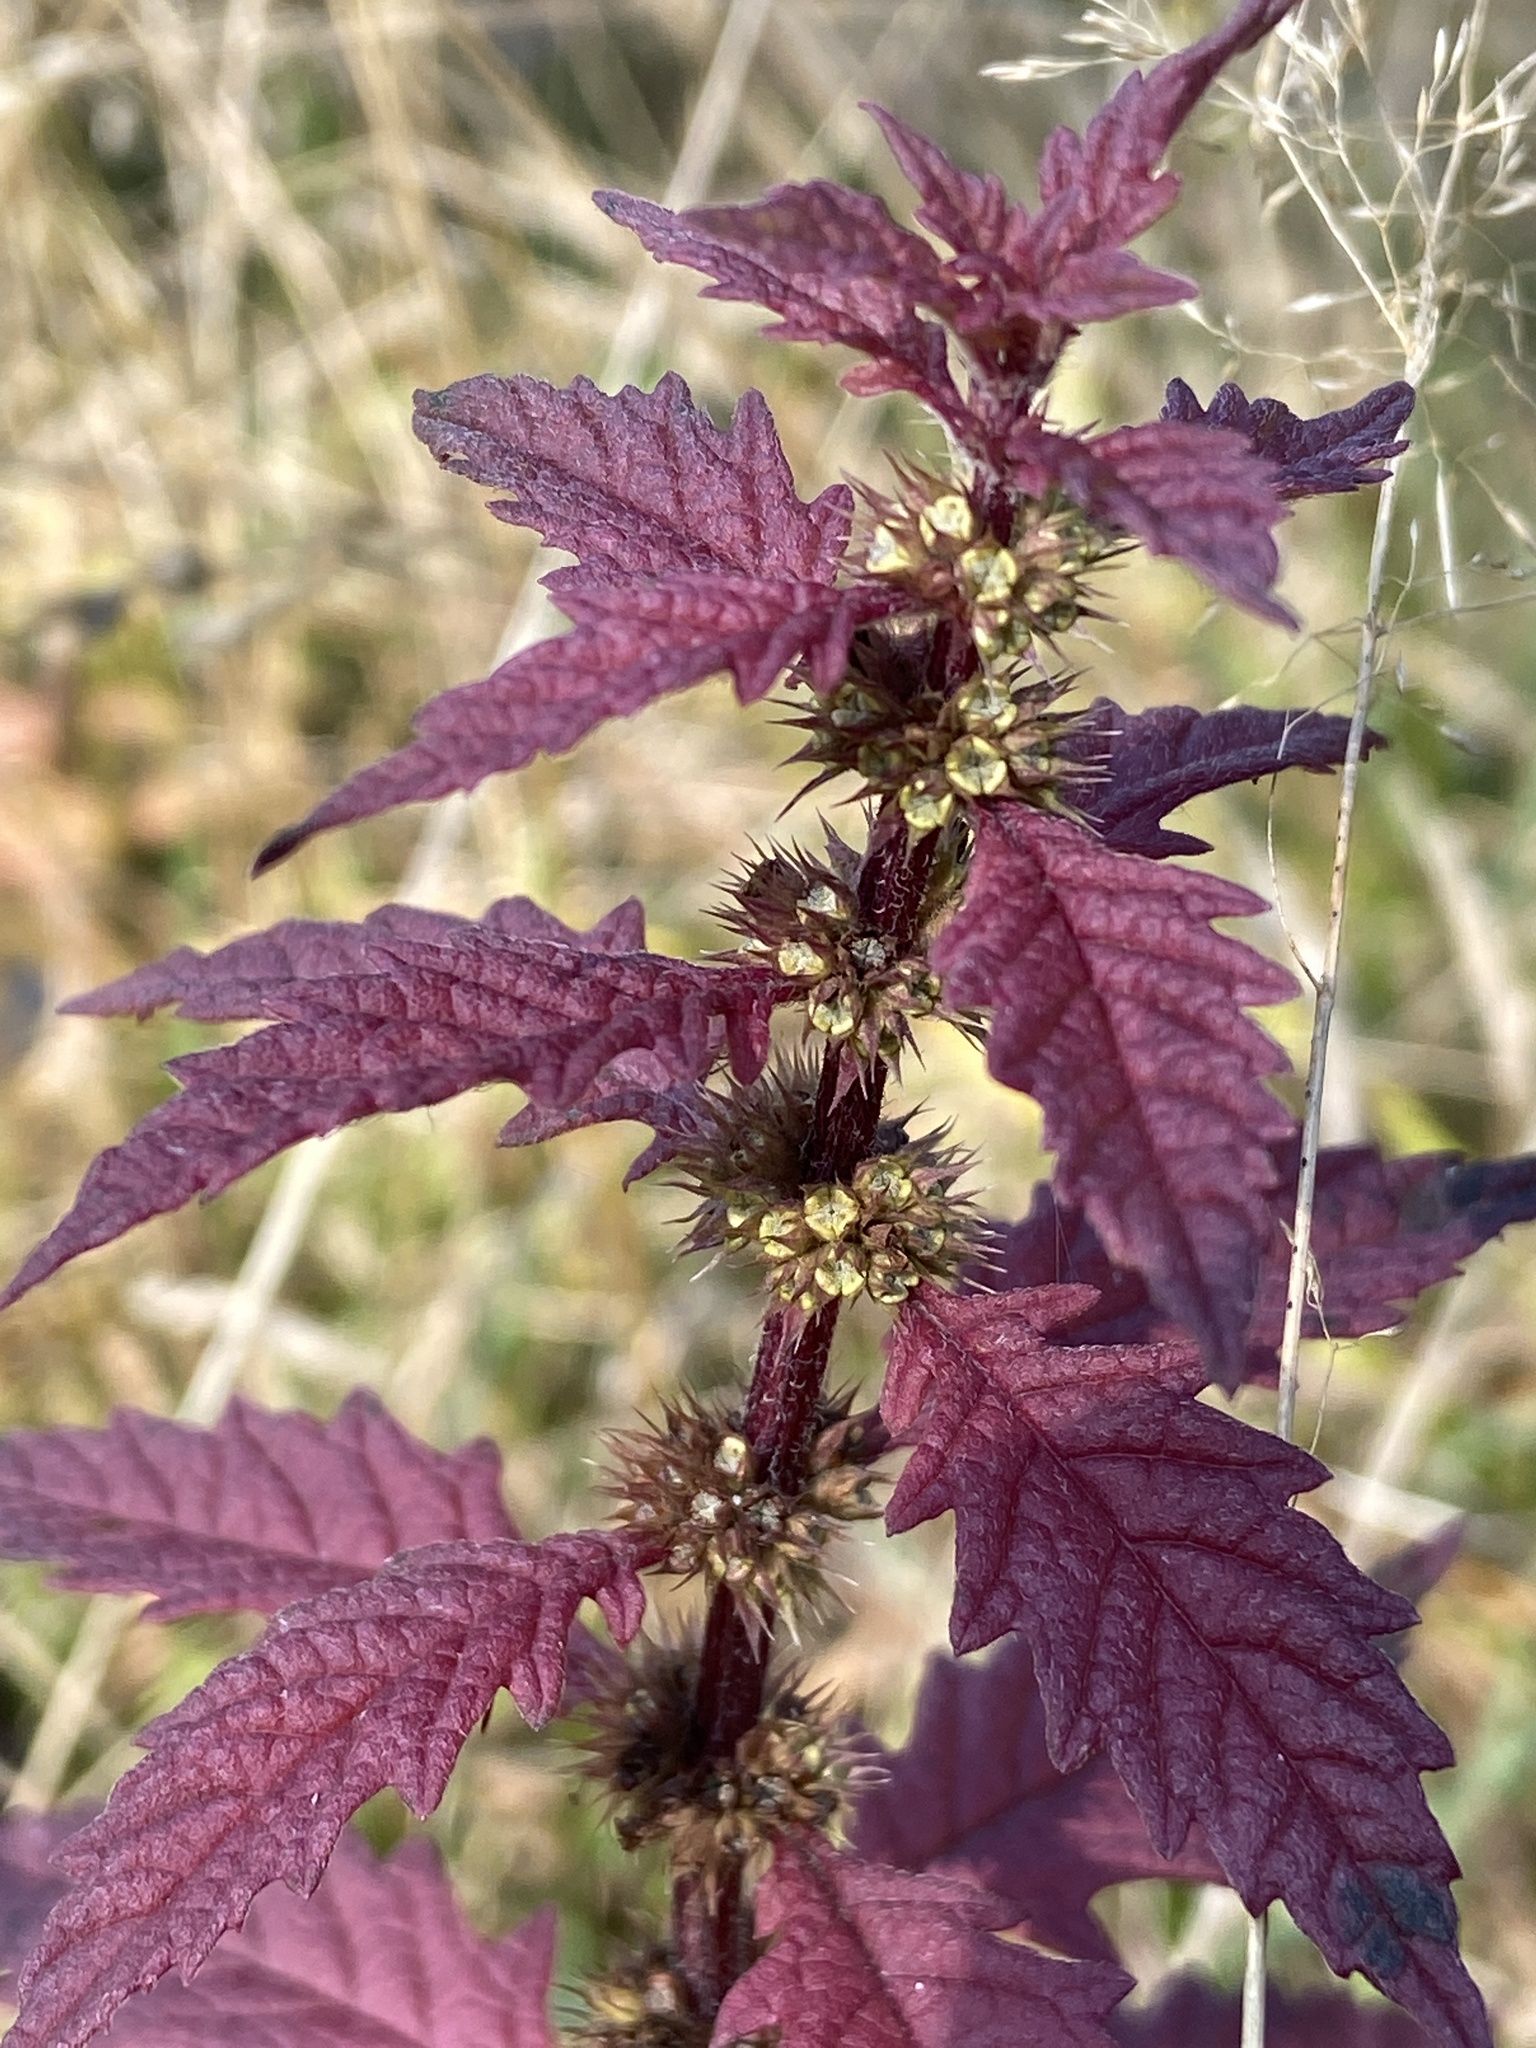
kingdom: Plantae
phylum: Tracheophyta
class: Magnoliopsida
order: Lamiales
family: Lamiaceae
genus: Lycopus
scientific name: Lycopus europaeus
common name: European bugleweed
